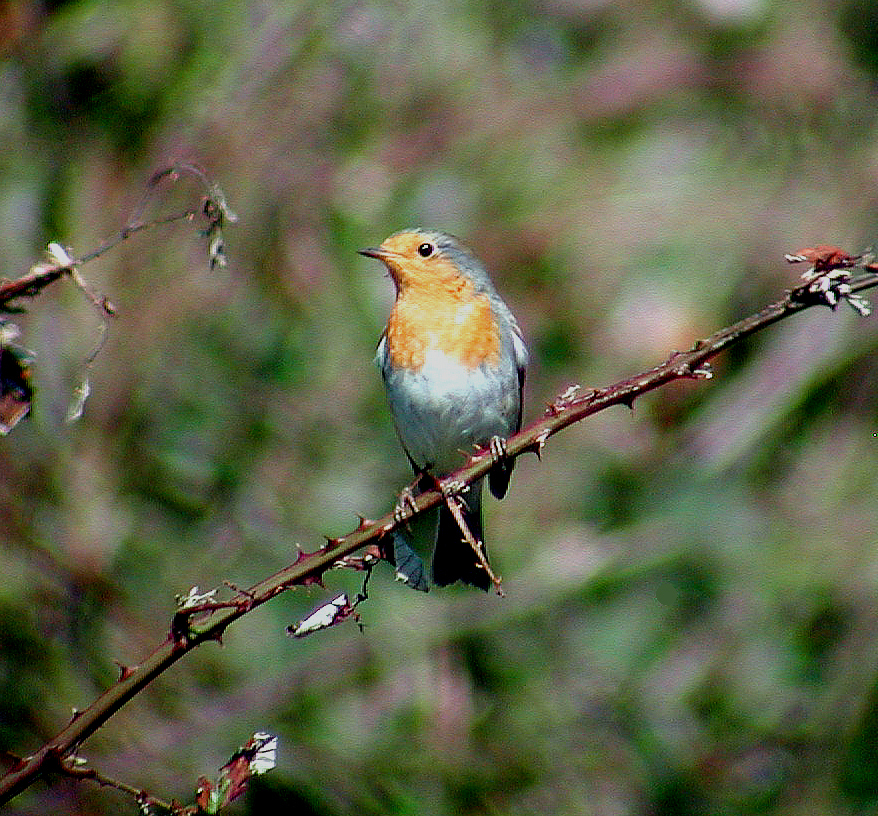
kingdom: Animalia
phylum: Chordata
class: Aves
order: Passeriformes
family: Muscicapidae
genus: Erithacus
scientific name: Erithacus rubecula
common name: European robin
